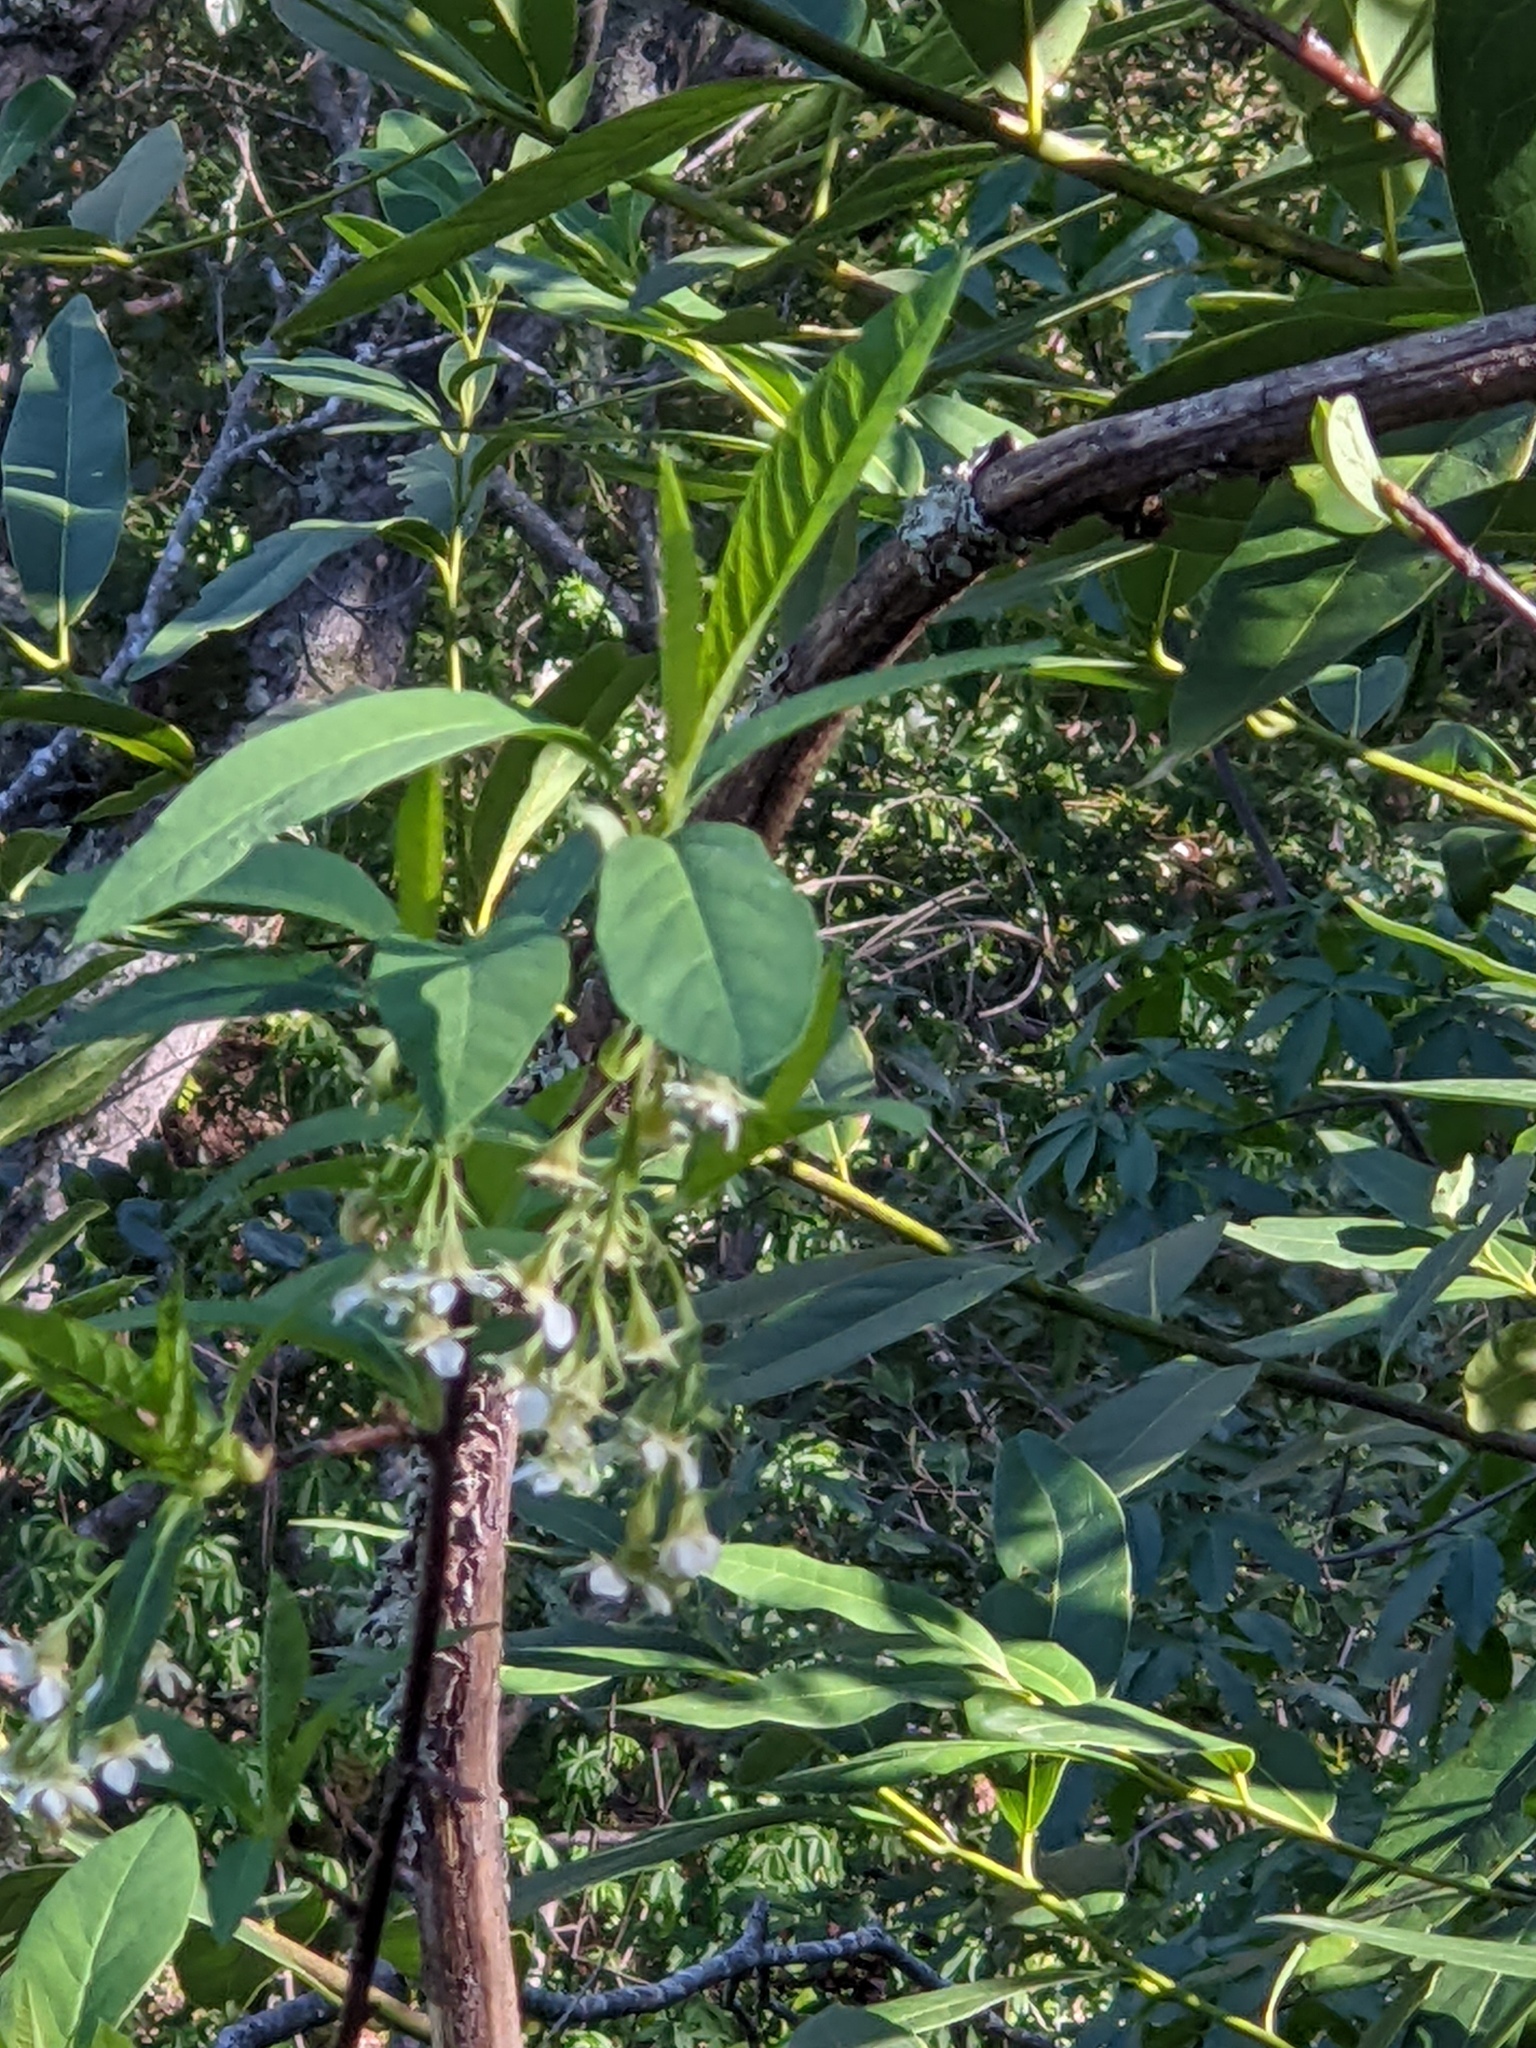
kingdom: Plantae
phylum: Tracheophyta
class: Magnoliopsida
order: Rosales
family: Rosaceae
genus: Oemleria
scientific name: Oemleria cerasiformis
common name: Osoberry
